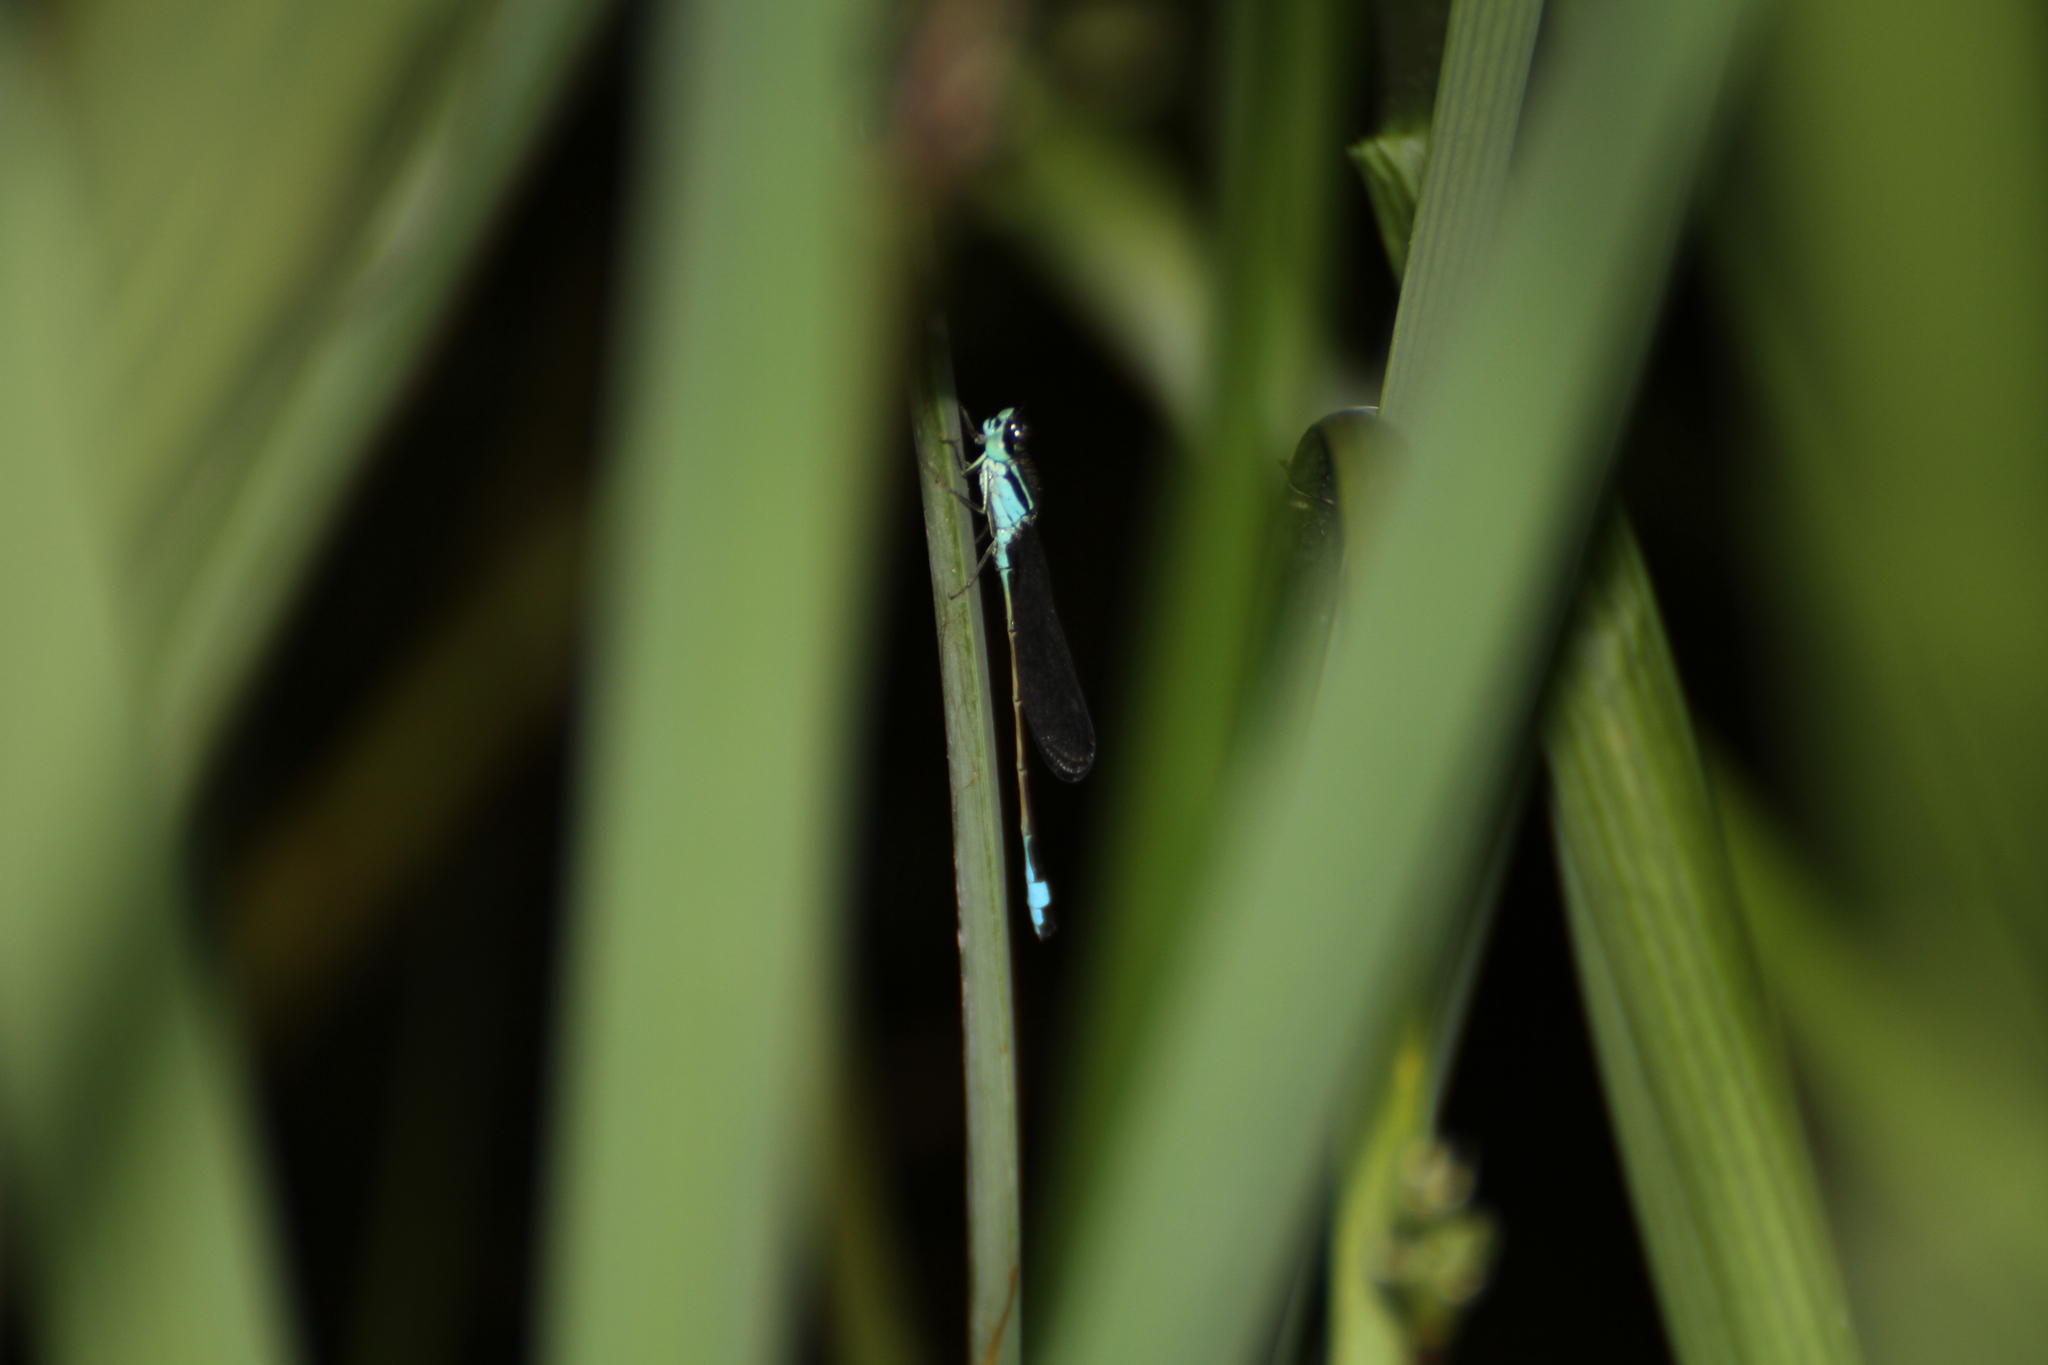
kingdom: Animalia
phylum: Arthropoda
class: Insecta
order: Odonata
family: Coenagrionidae
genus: Ischnura
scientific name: Ischnura elegans
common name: Blue-tailed damselfly
